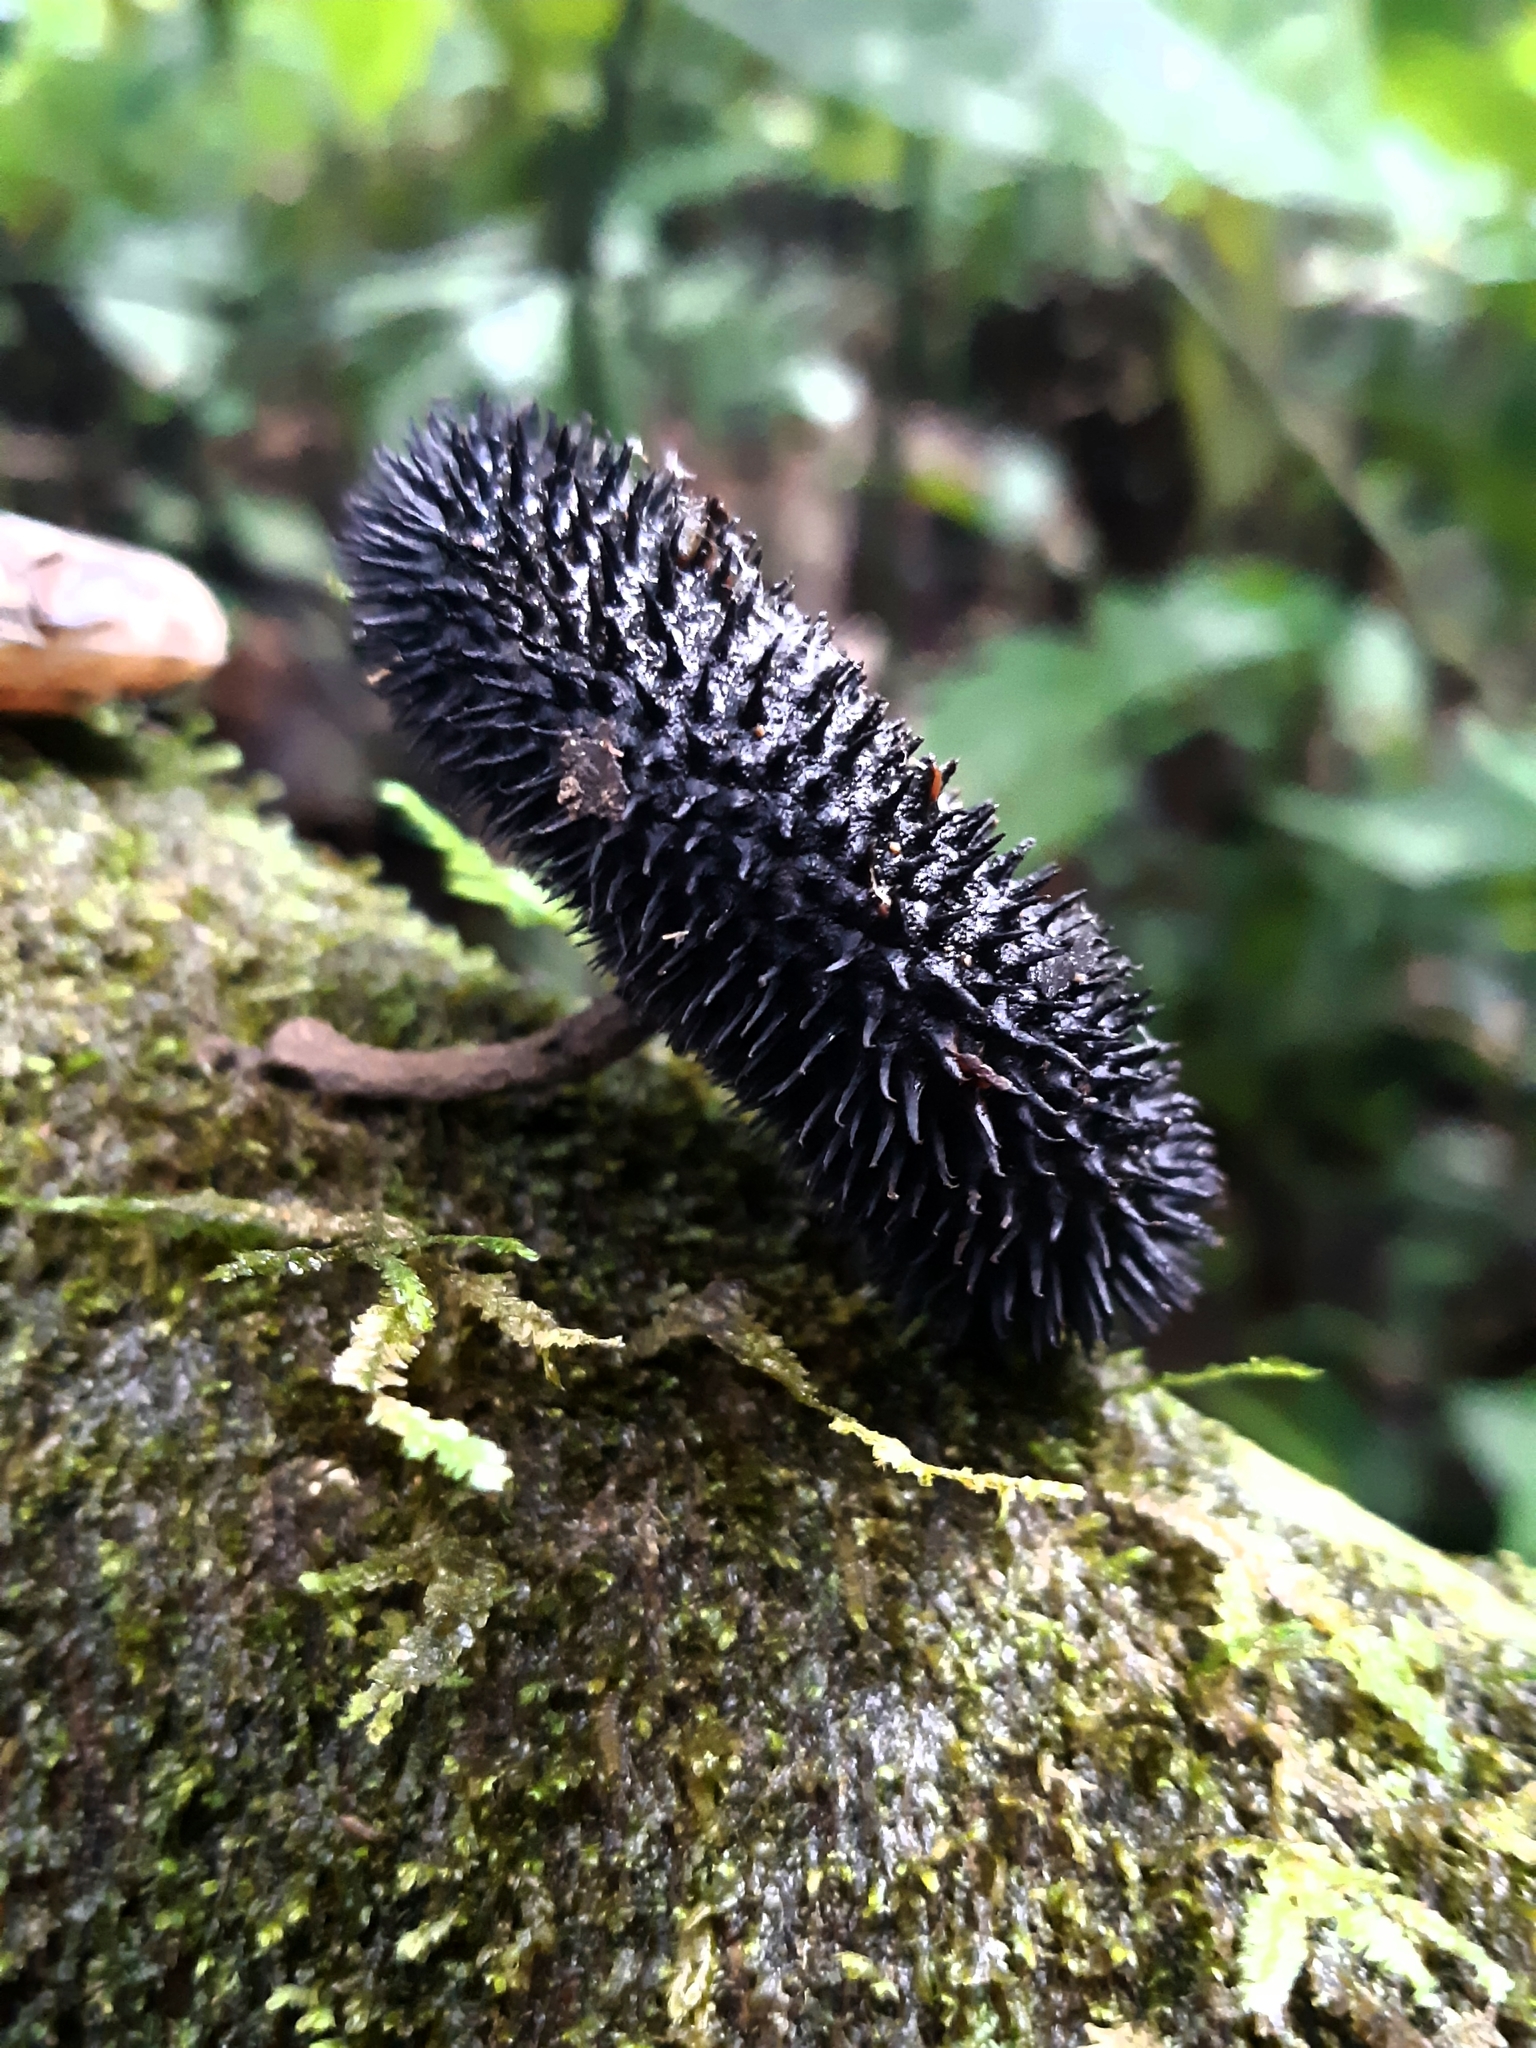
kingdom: Plantae
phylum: Tracheophyta
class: Magnoliopsida
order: Malvales
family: Malvaceae
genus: Apeiba
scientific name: Apeiba membranacea
